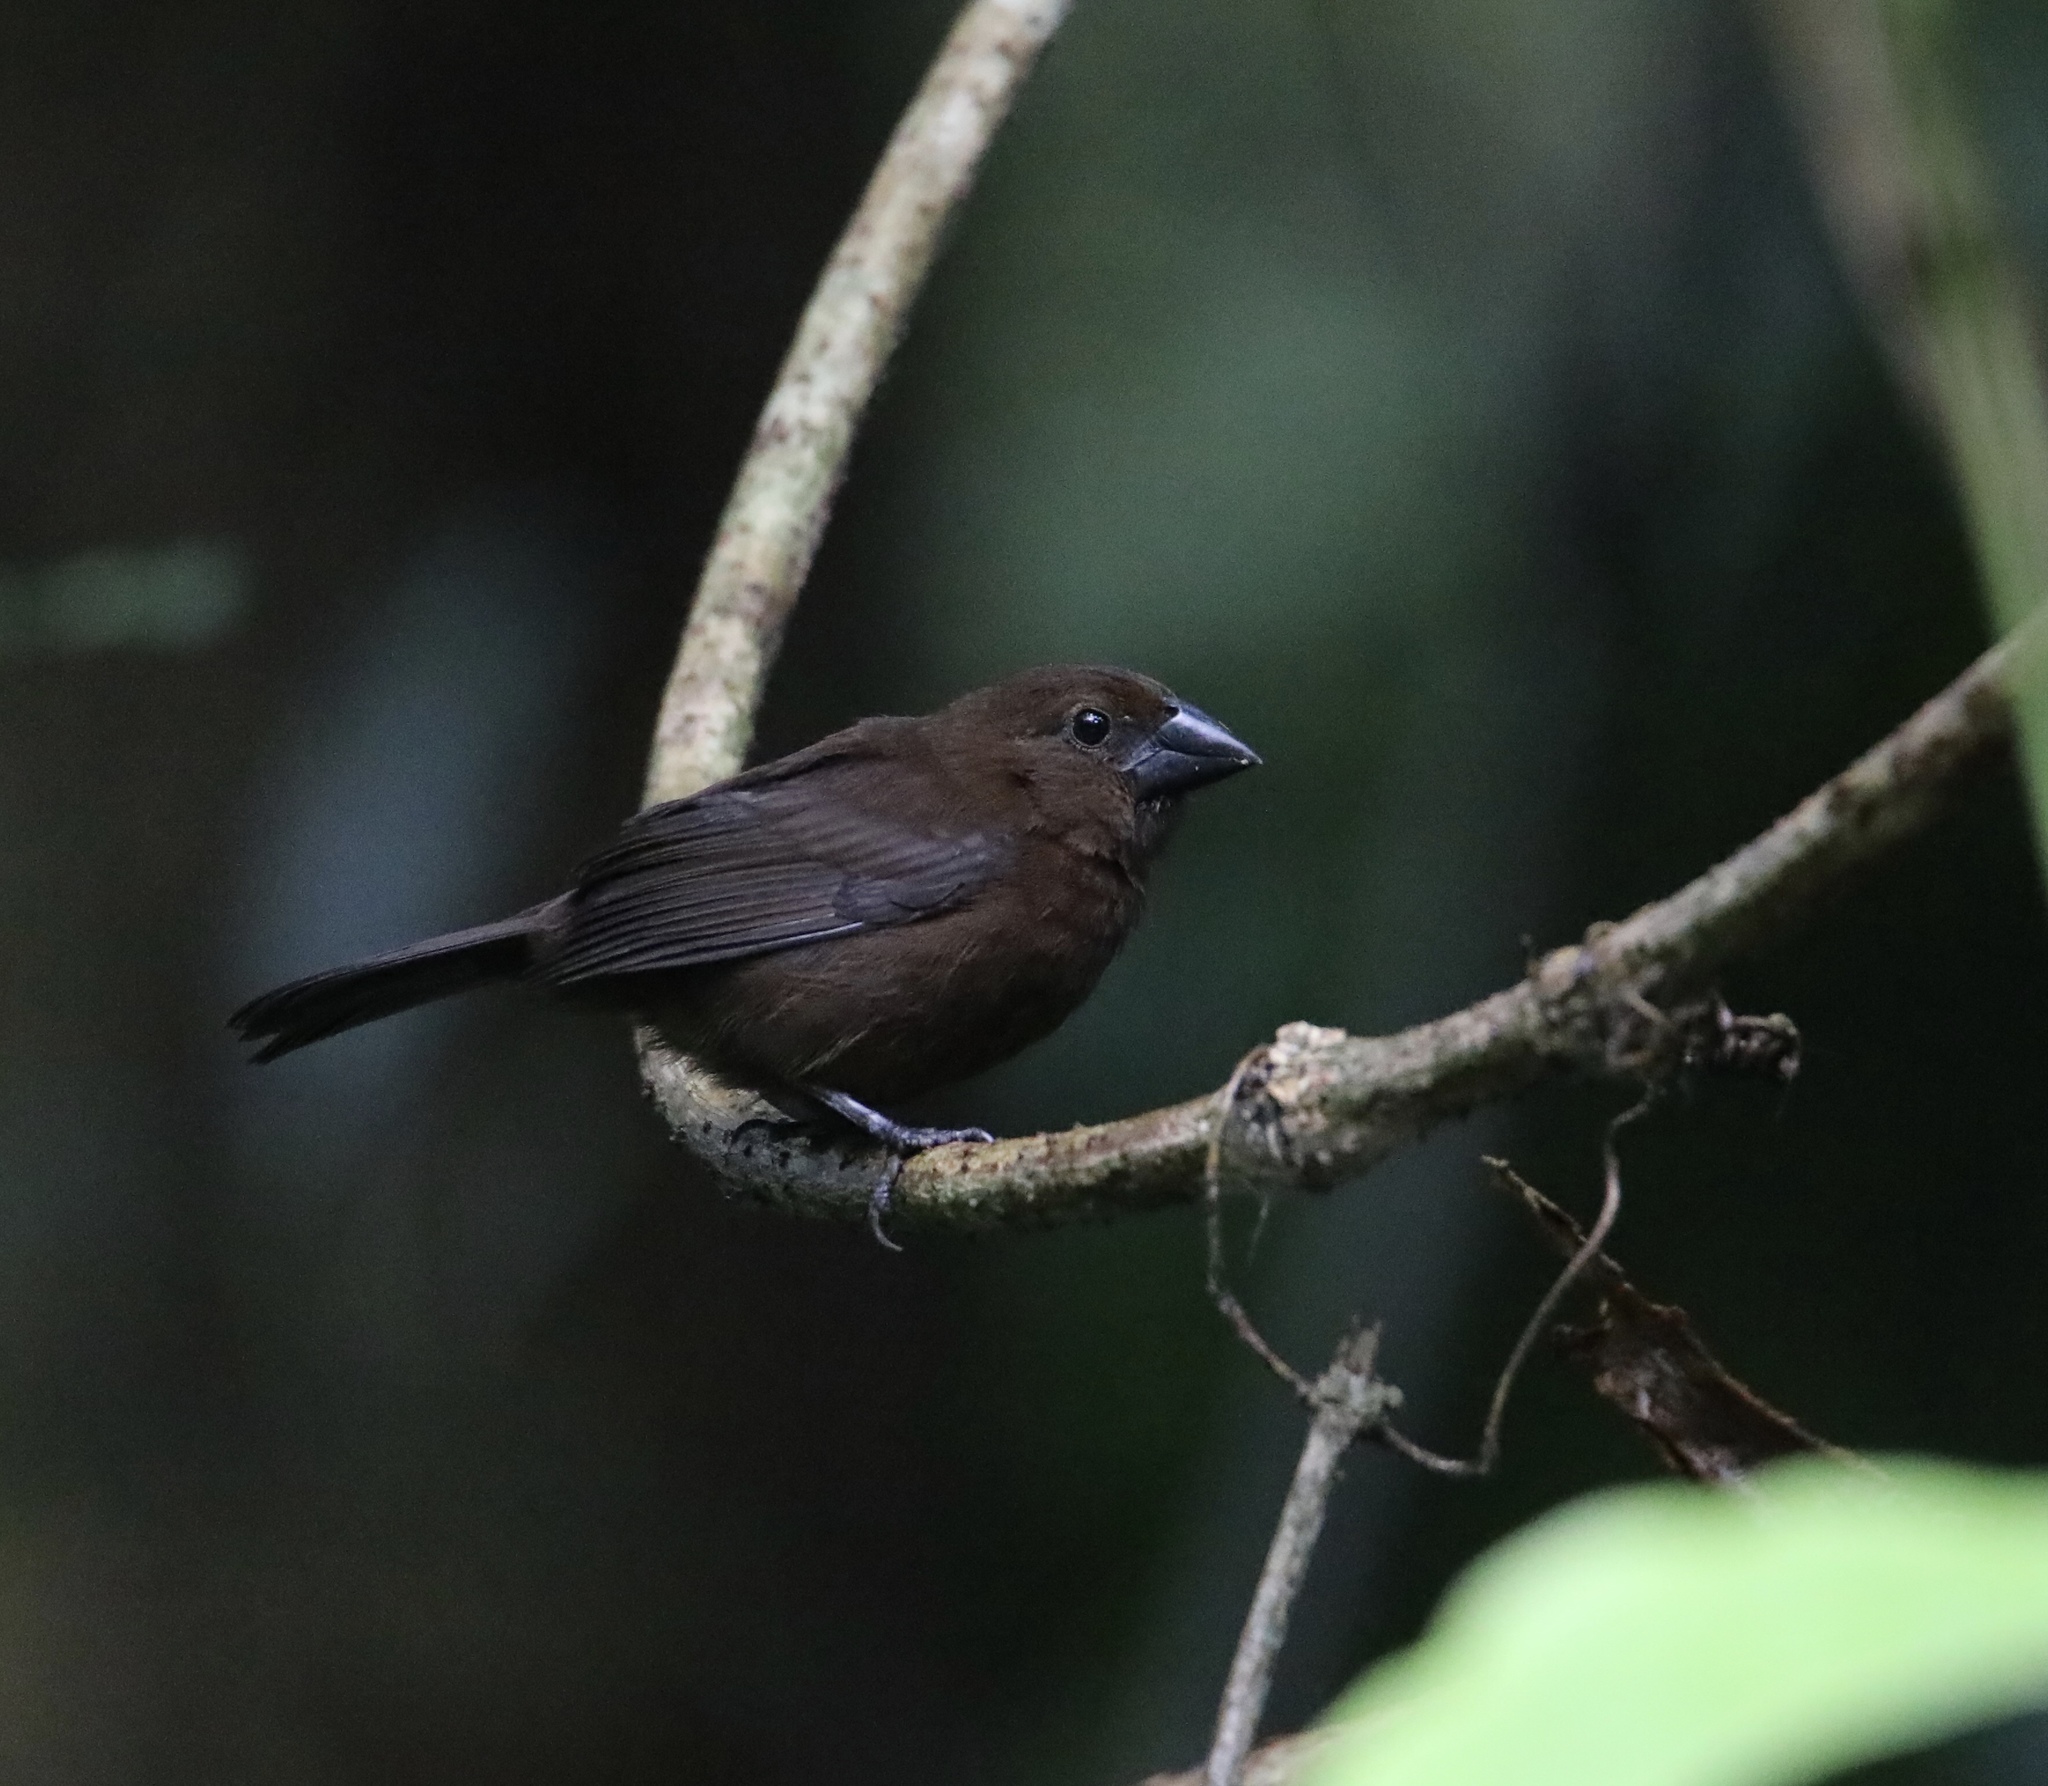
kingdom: Animalia
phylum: Chordata
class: Aves
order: Passeriformes
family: Cardinalidae
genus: Cyanocompsa
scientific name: Cyanocompsa cyanoides
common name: Blue-black grosbeak
